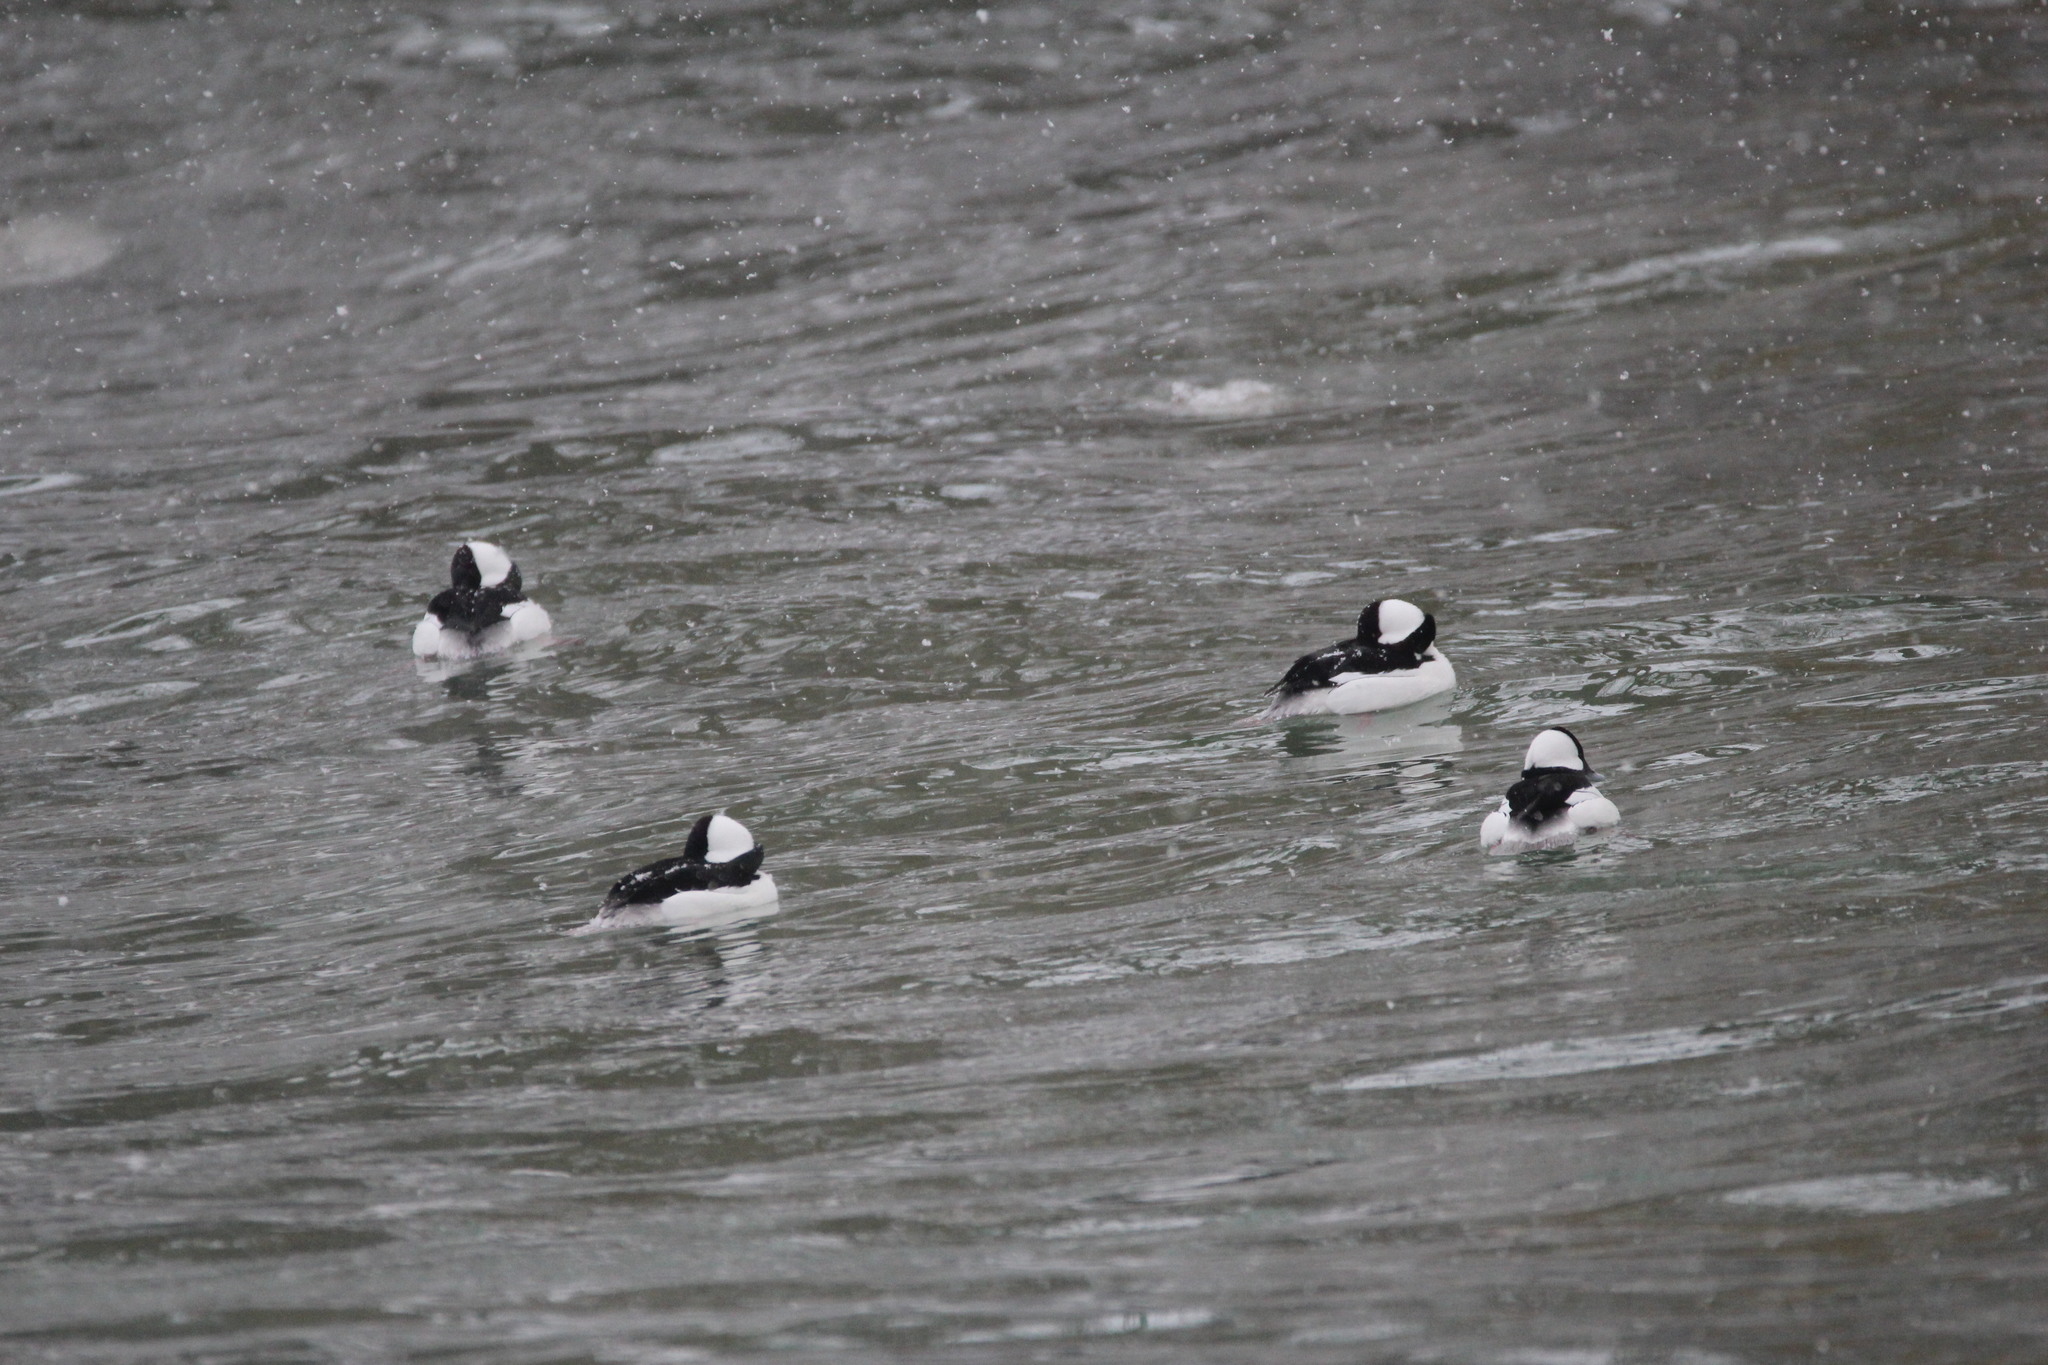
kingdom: Animalia
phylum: Chordata
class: Aves
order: Anseriformes
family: Anatidae
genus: Bucephala
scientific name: Bucephala albeola
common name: Bufflehead
